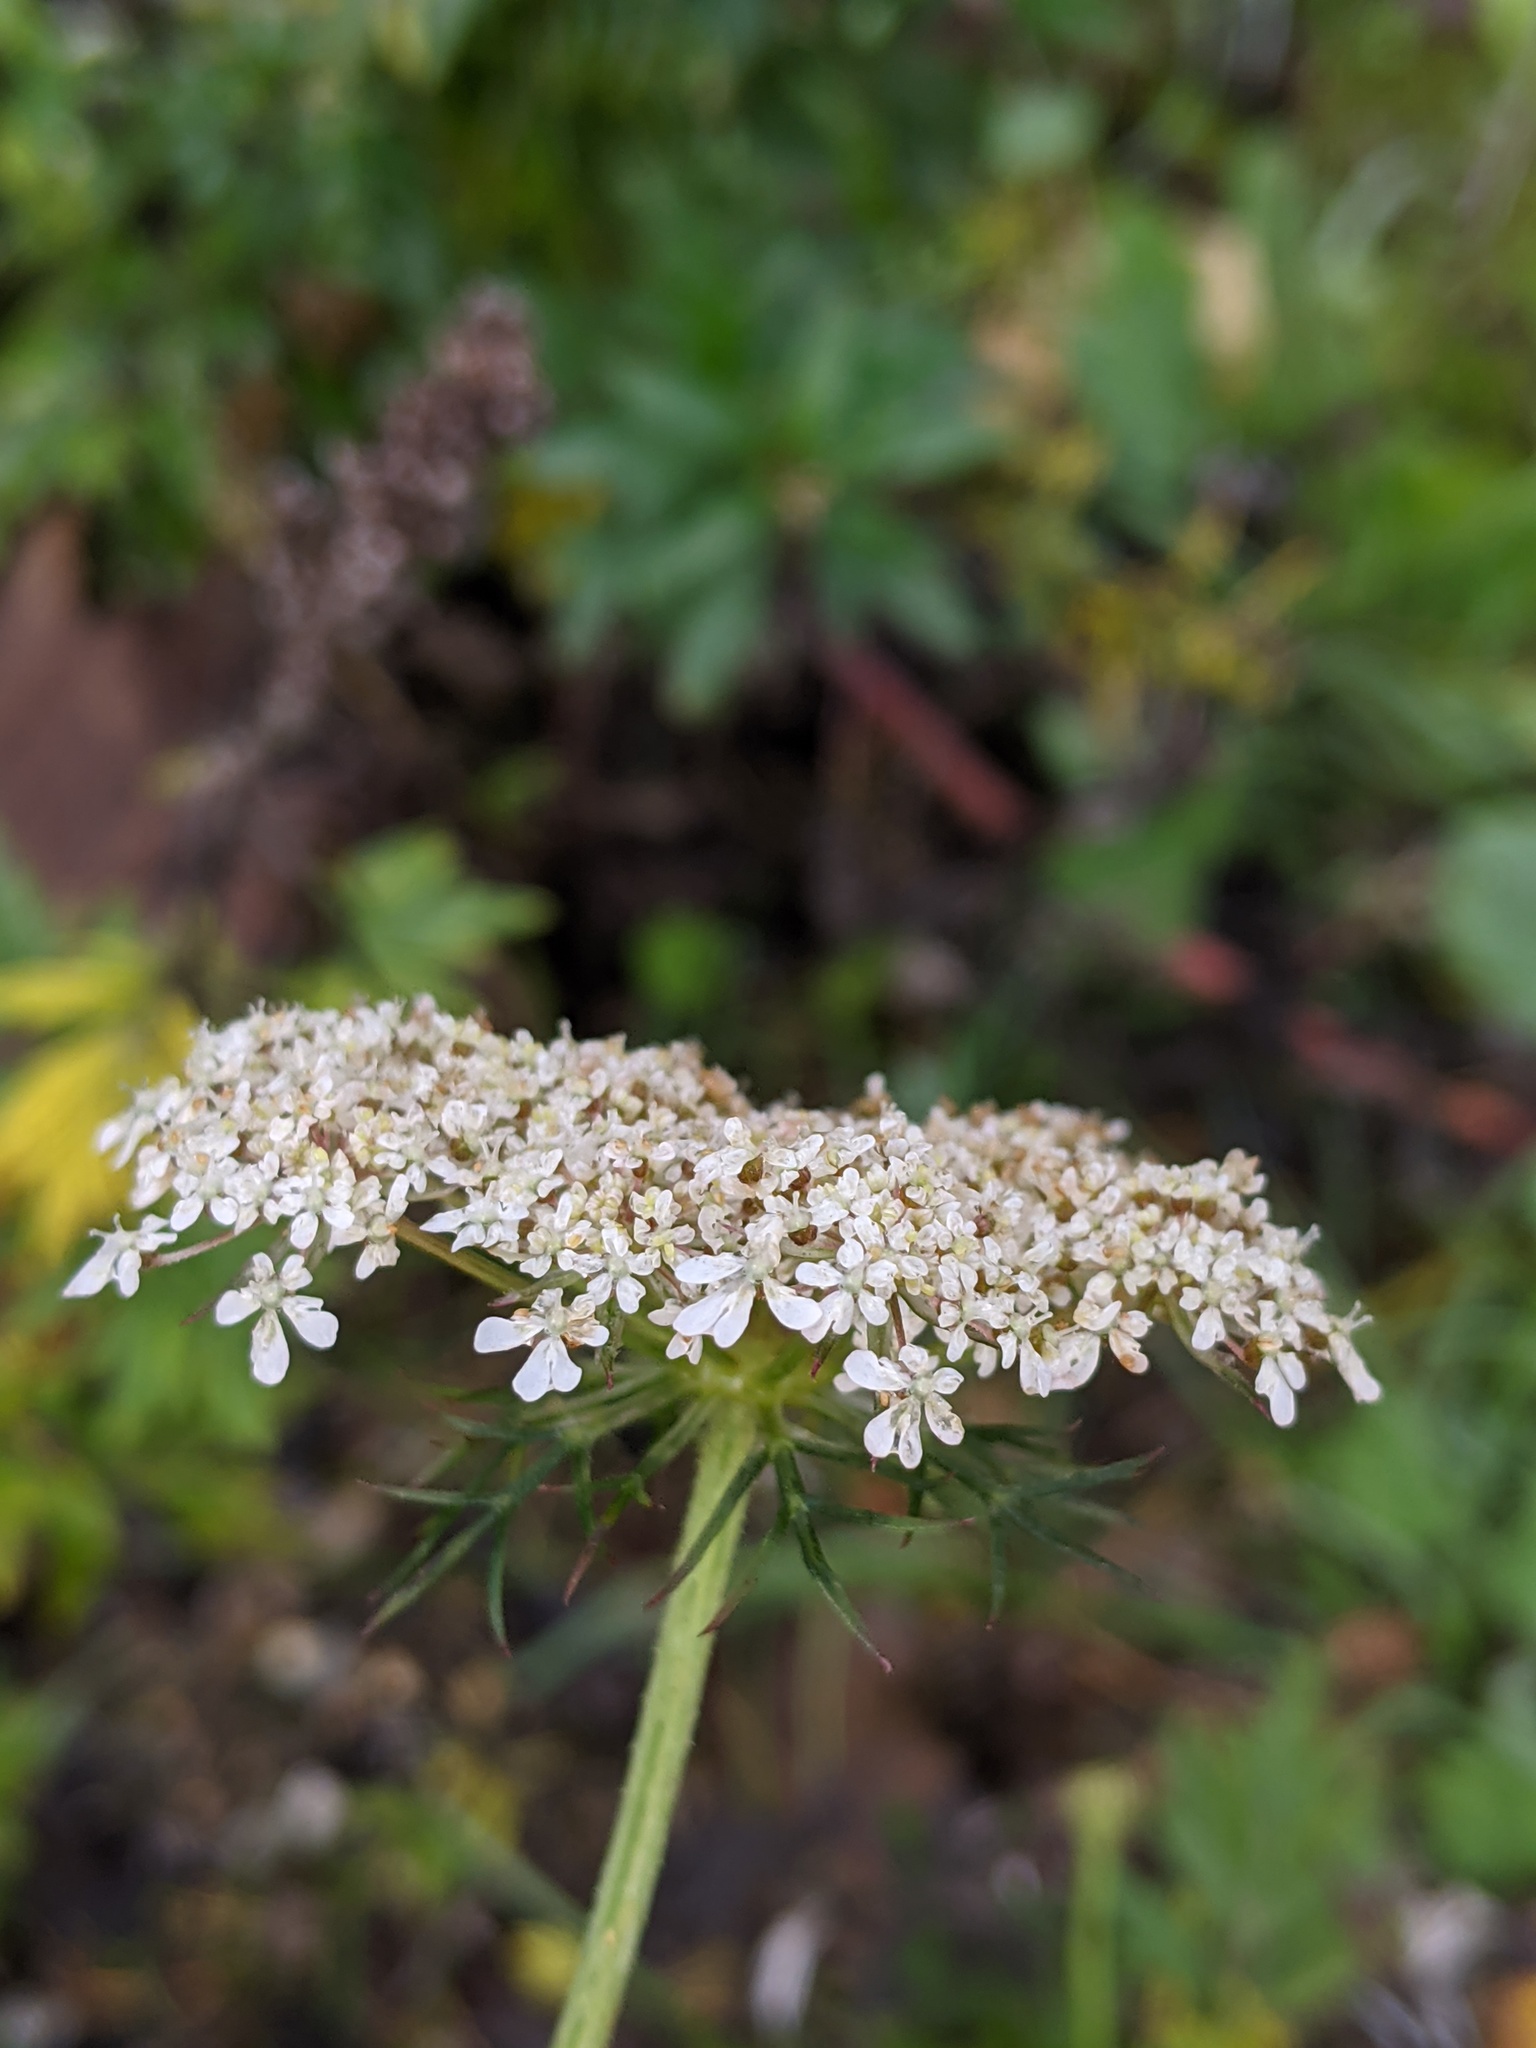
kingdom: Plantae
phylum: Tracheophyta
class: Magnoliopsida
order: Apiales
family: Apiaceae
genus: Daucus
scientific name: Daucus carota
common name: Wild carrot
